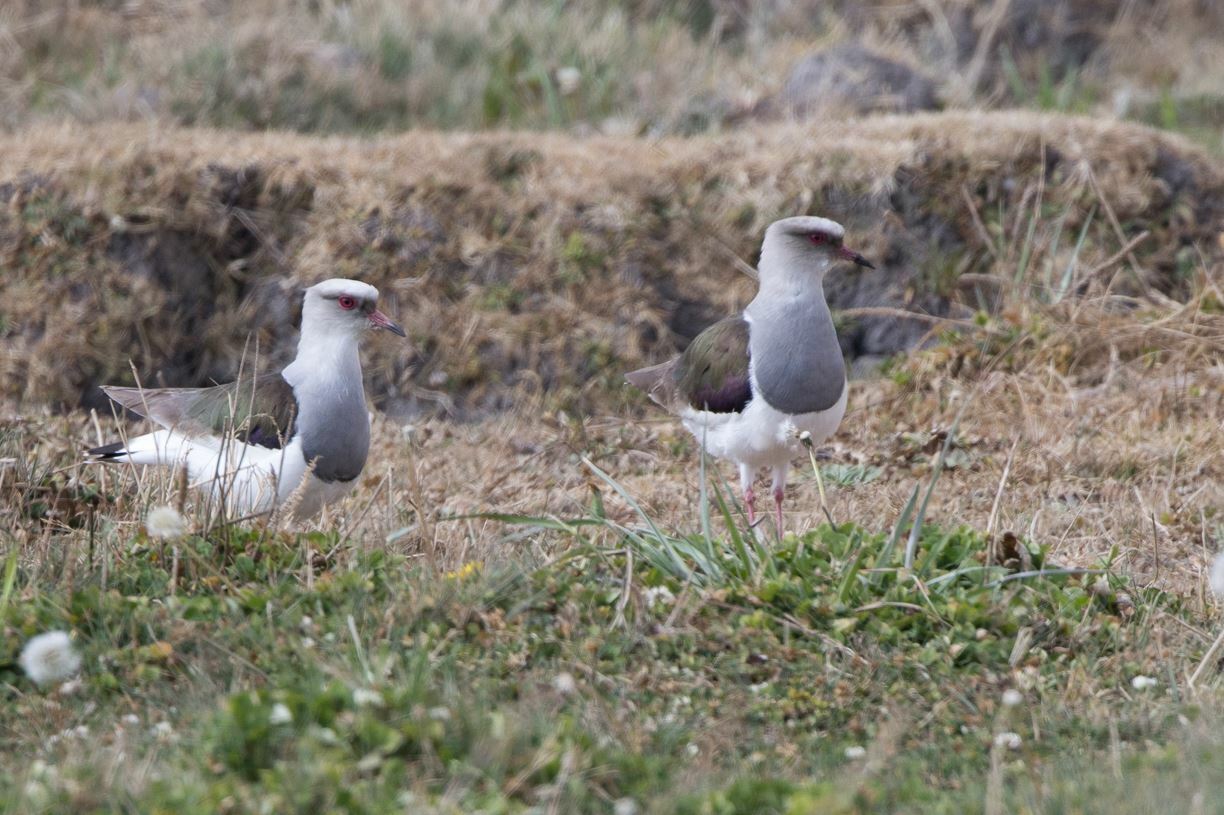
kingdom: Animalia
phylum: Chordata
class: Aves
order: Charadriiformes
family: Charadriidae
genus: Vanellus
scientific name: Vanellus resplendens
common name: Andean lapwing
